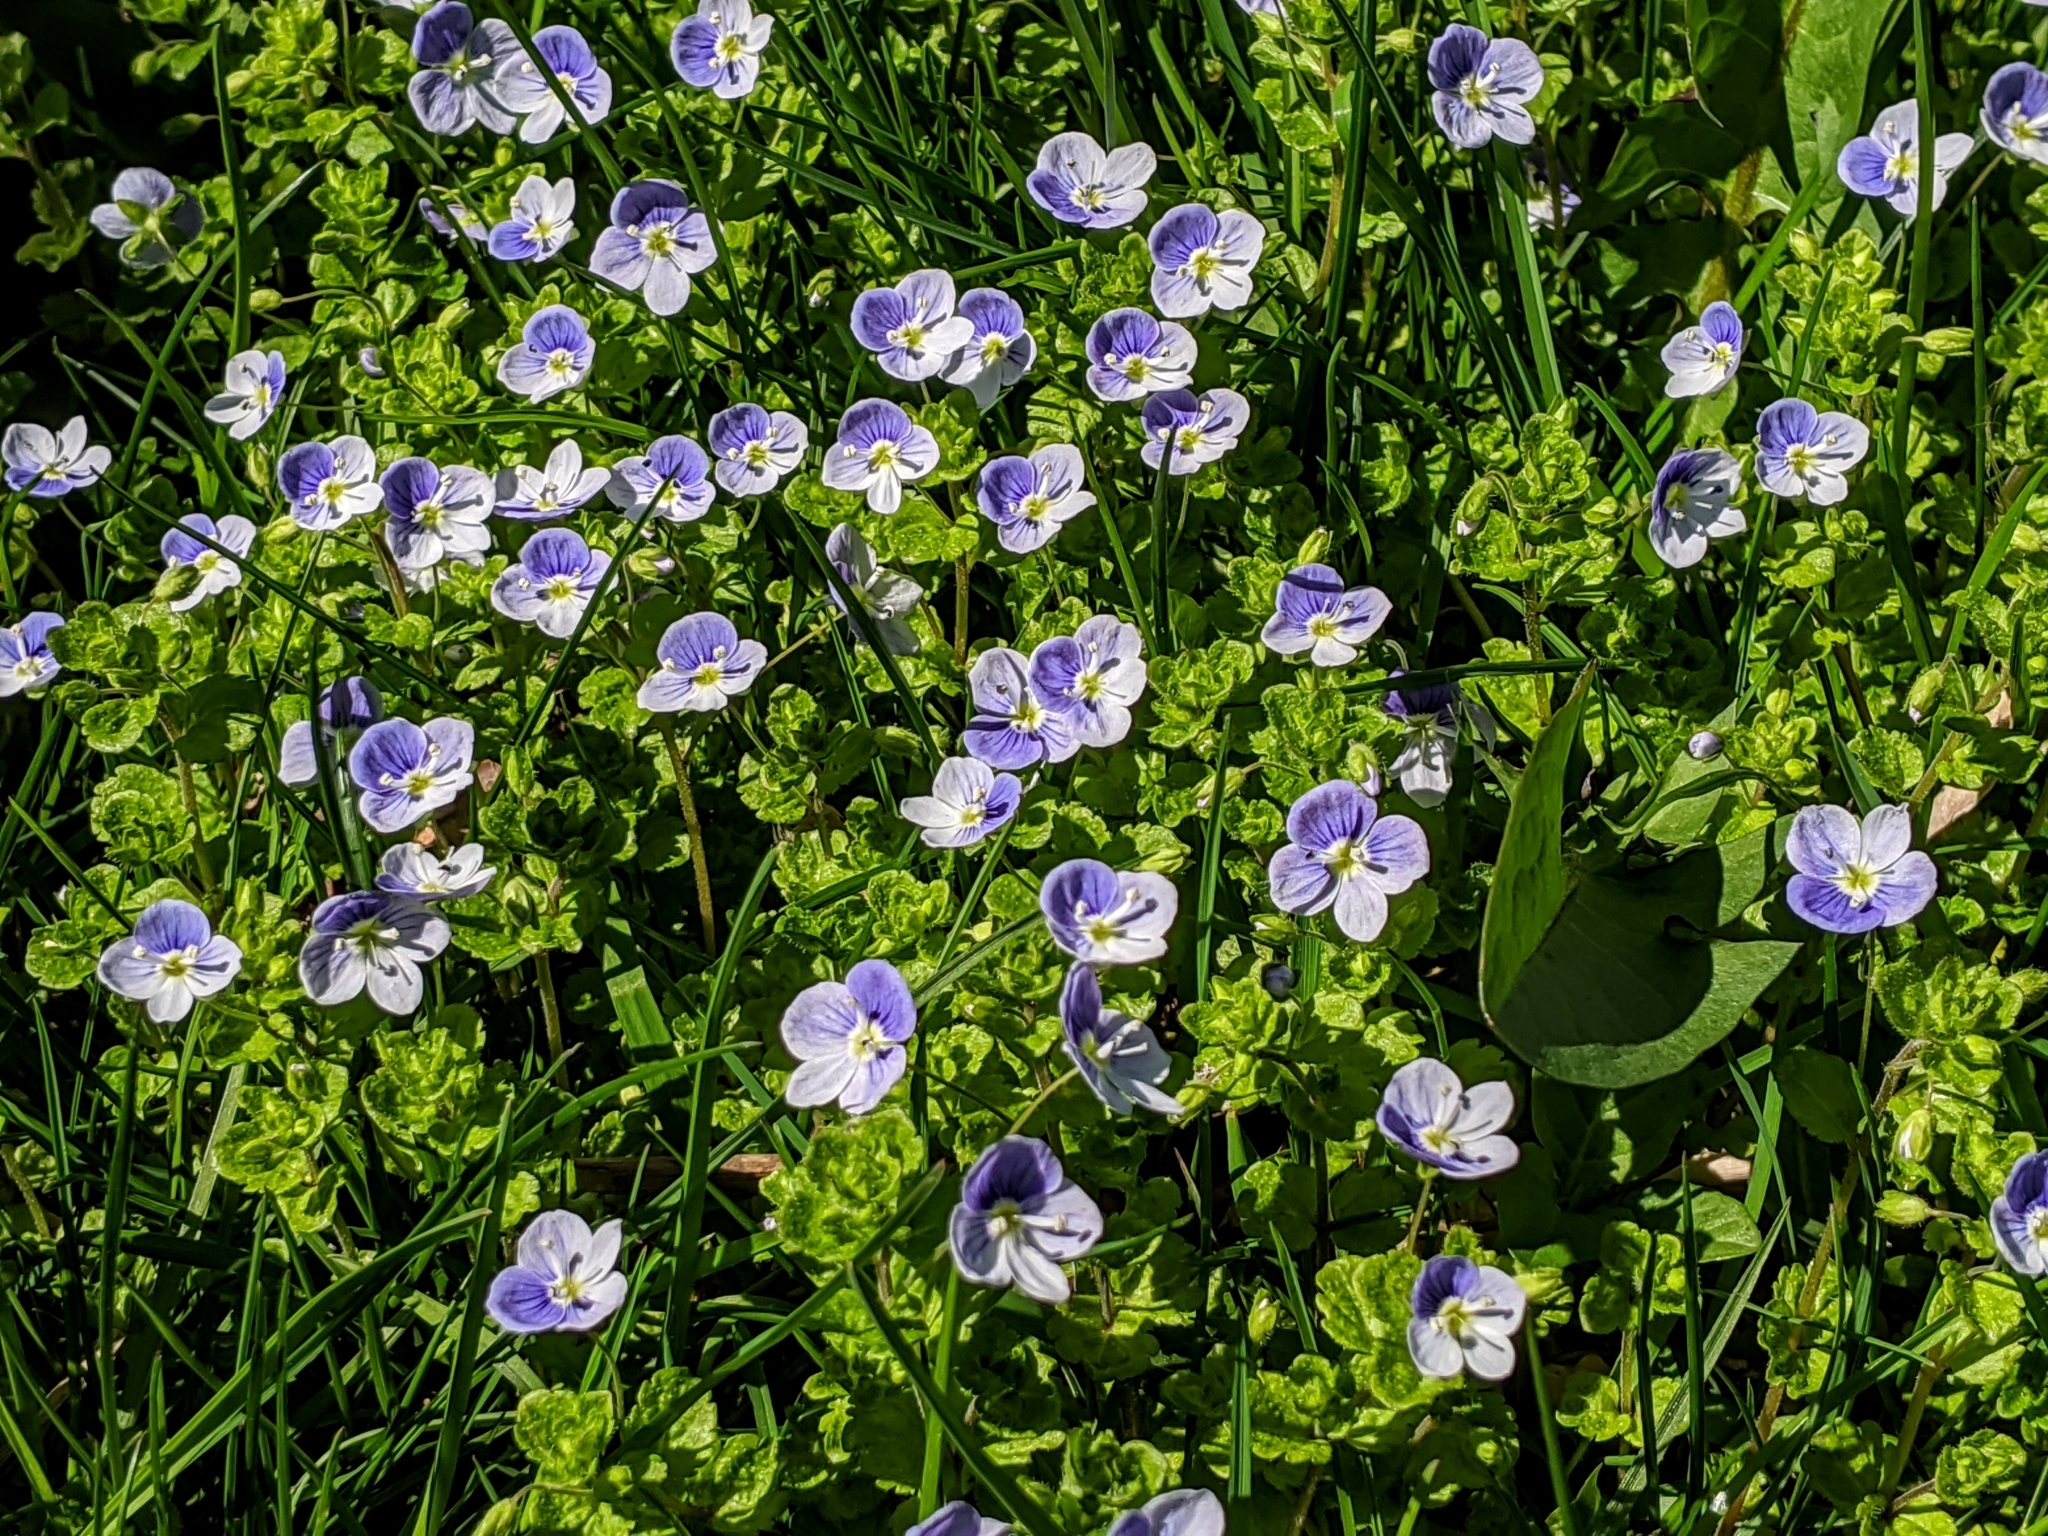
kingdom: Plantae
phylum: Tracheophyta
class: Magnoliopsida
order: Lamiales
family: Plantaginaceae
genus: Veronica
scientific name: Veronica filiformis
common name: Slender speedwell
